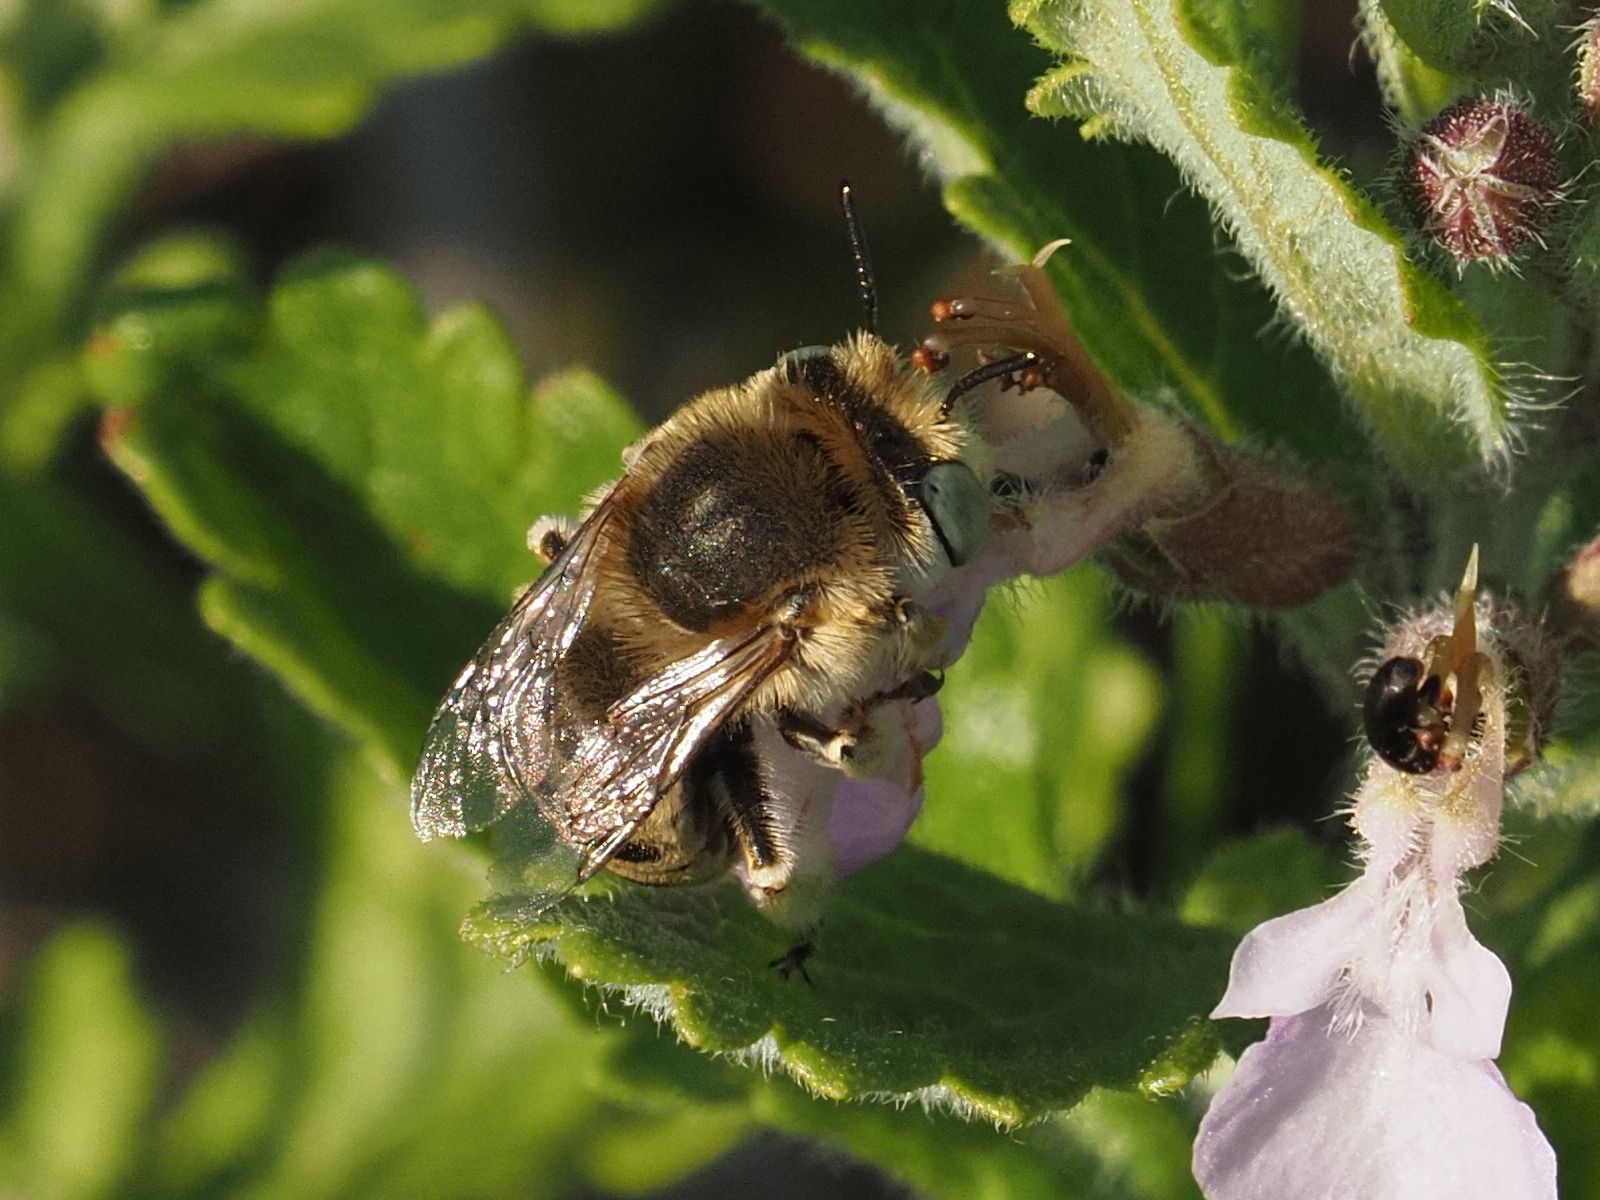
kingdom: Animalia
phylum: Arthropoda
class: Insecta
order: Hymenoptera
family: Apidae
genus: Anthophora
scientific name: Anthophora bimaculata
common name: Green-eyed flower bee
